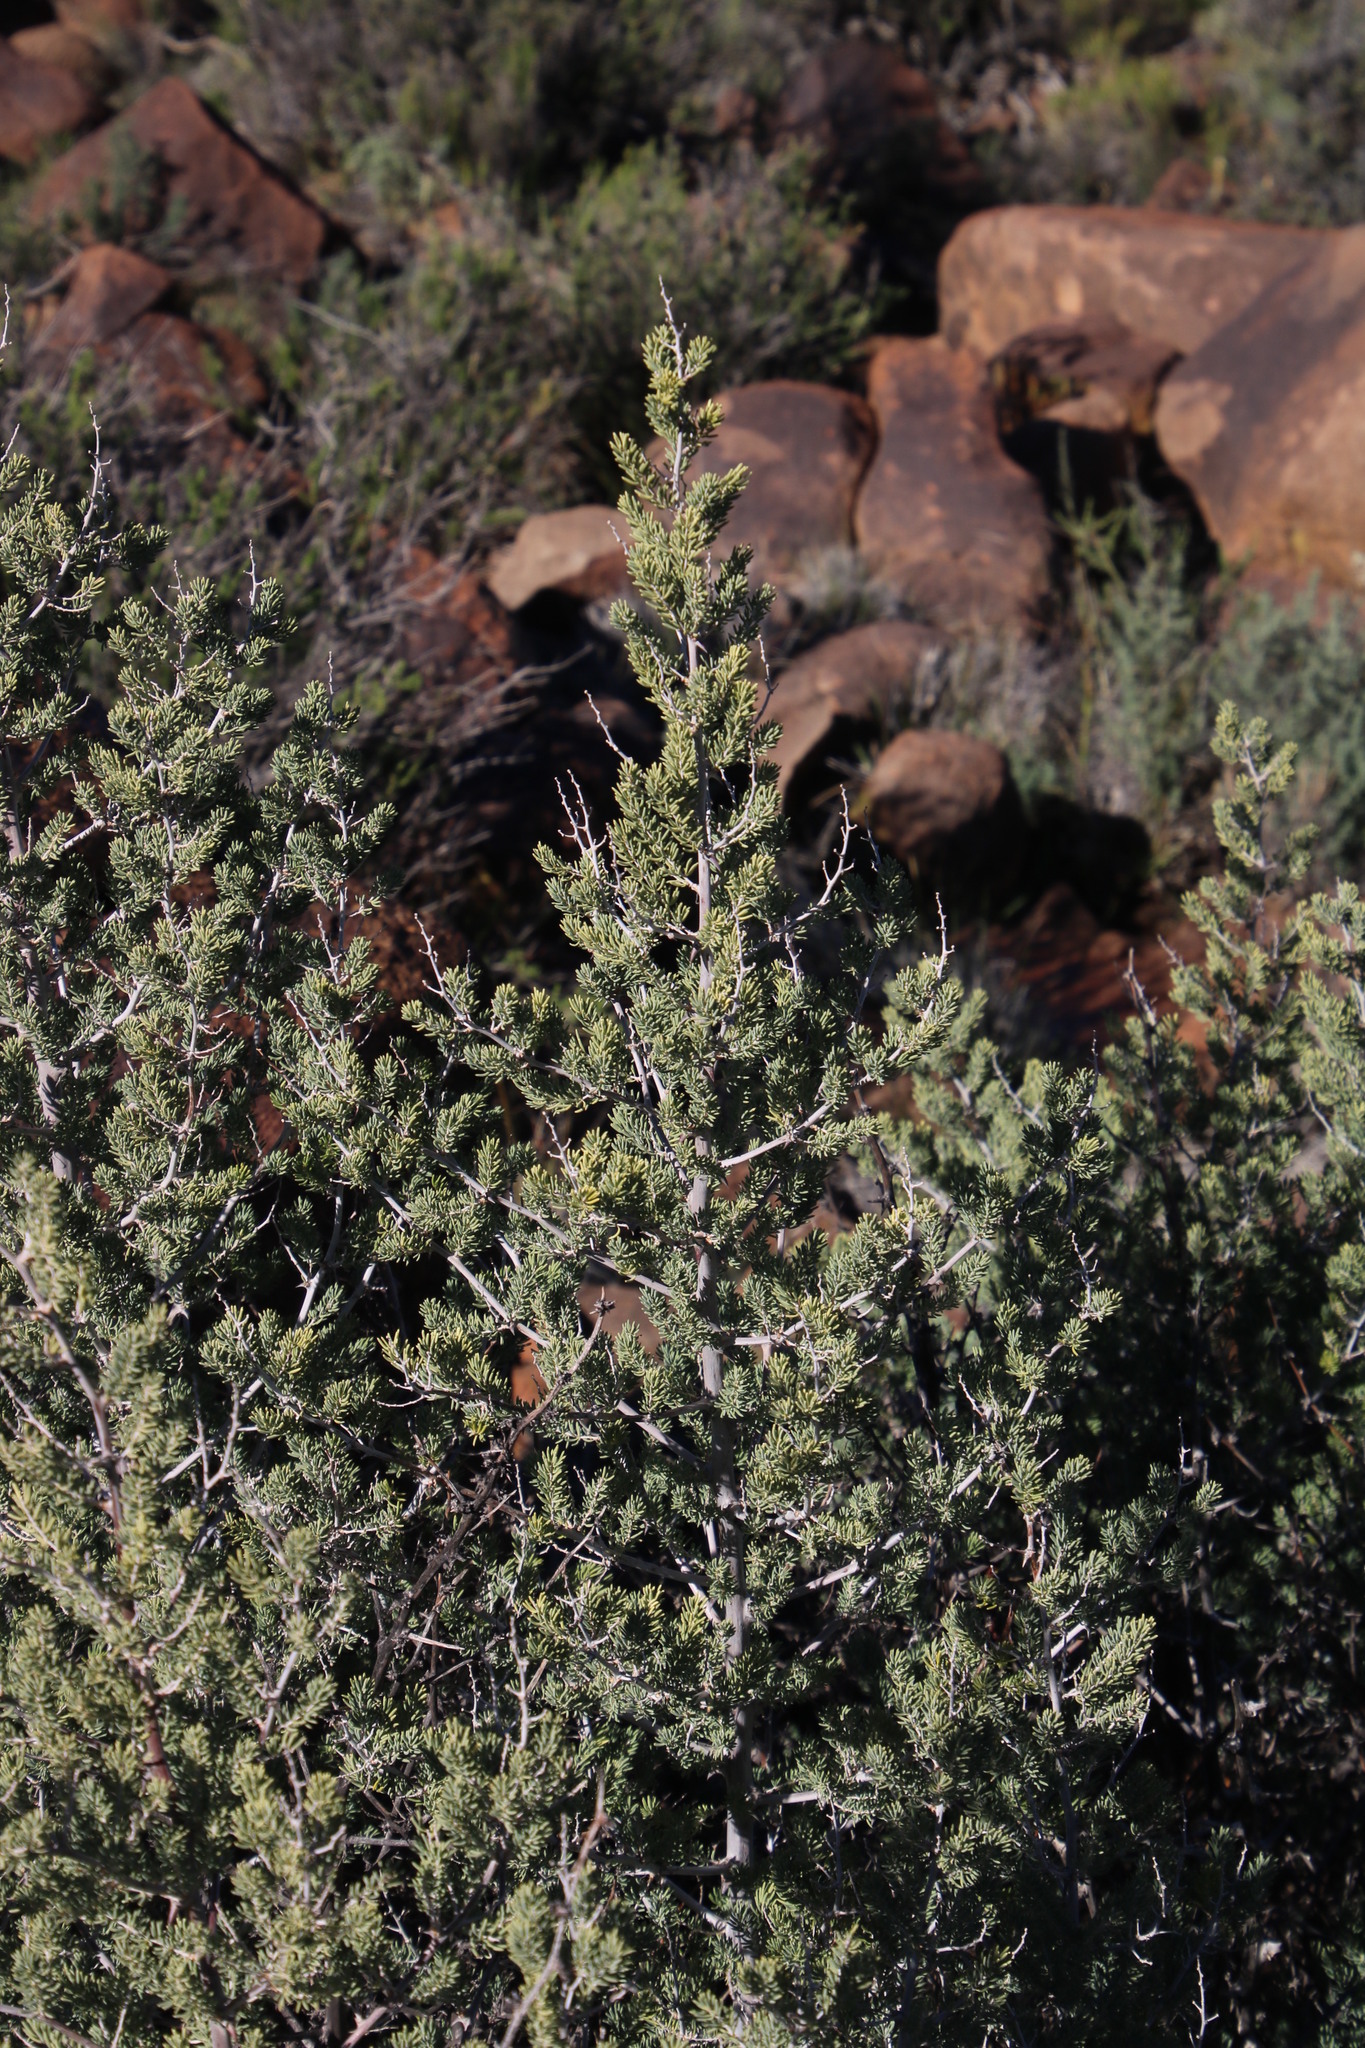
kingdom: Plantae
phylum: Tracheophyta
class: Liliopsida
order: Asparagales
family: Asparagaceae
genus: Asparagus
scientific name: Asparagus mucronatus
